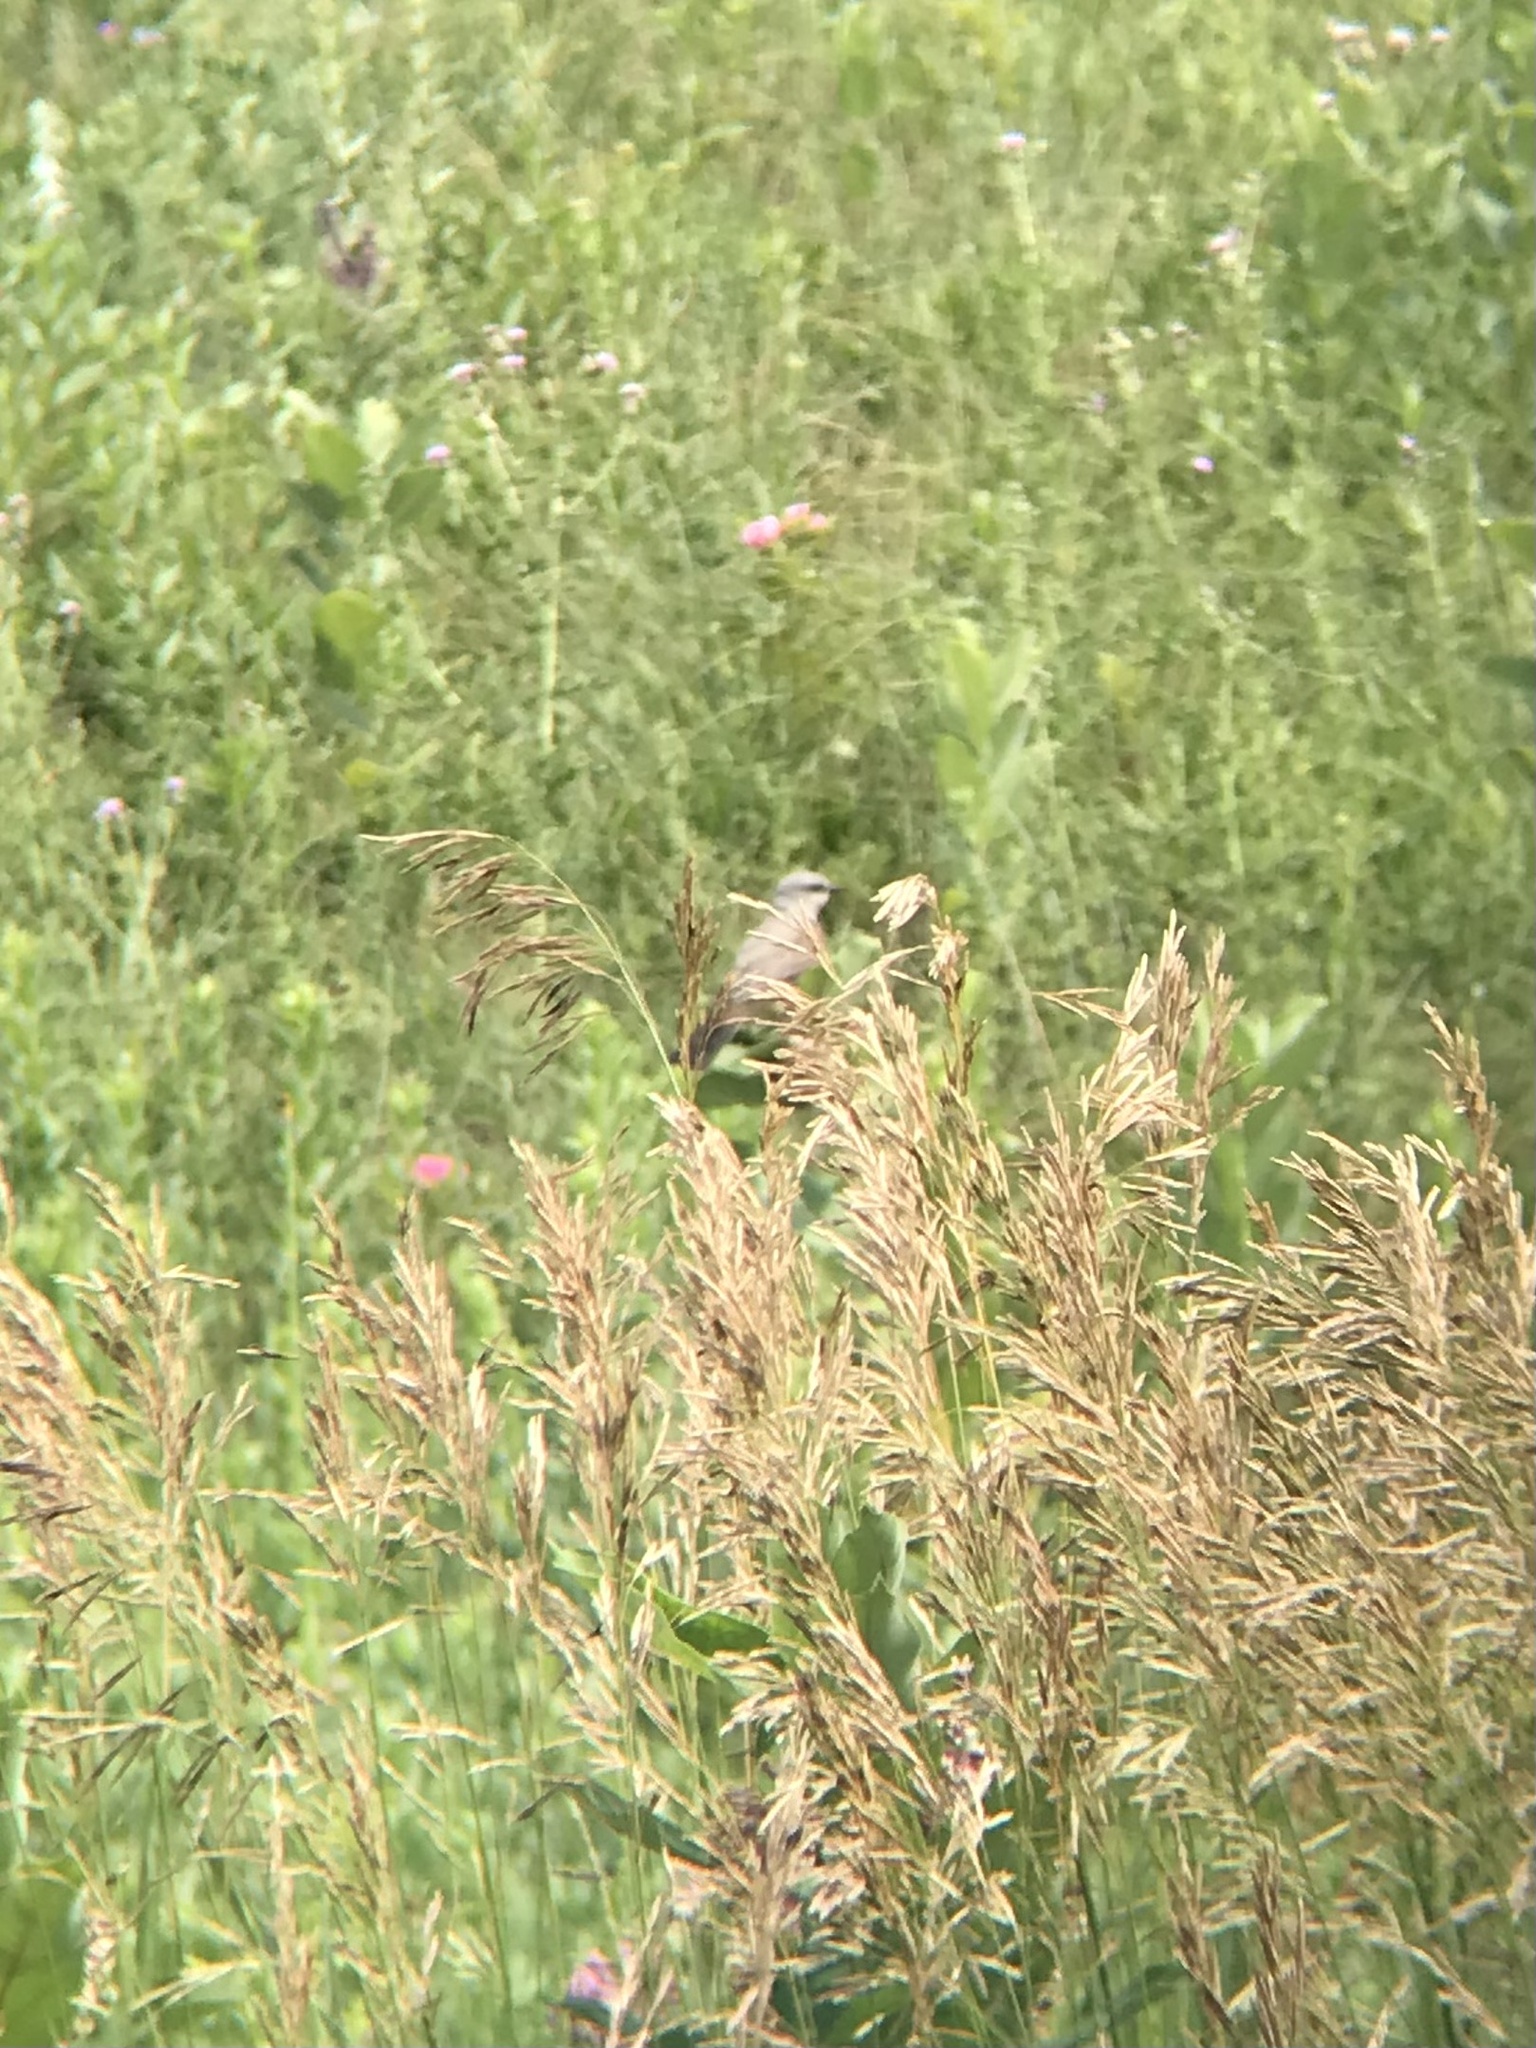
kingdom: Animalia
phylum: Chordata
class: Aves
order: Passeriformes
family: Tyrannidae
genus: Tyrannus
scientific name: Tyrannus verticalis
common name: Western kingbird
